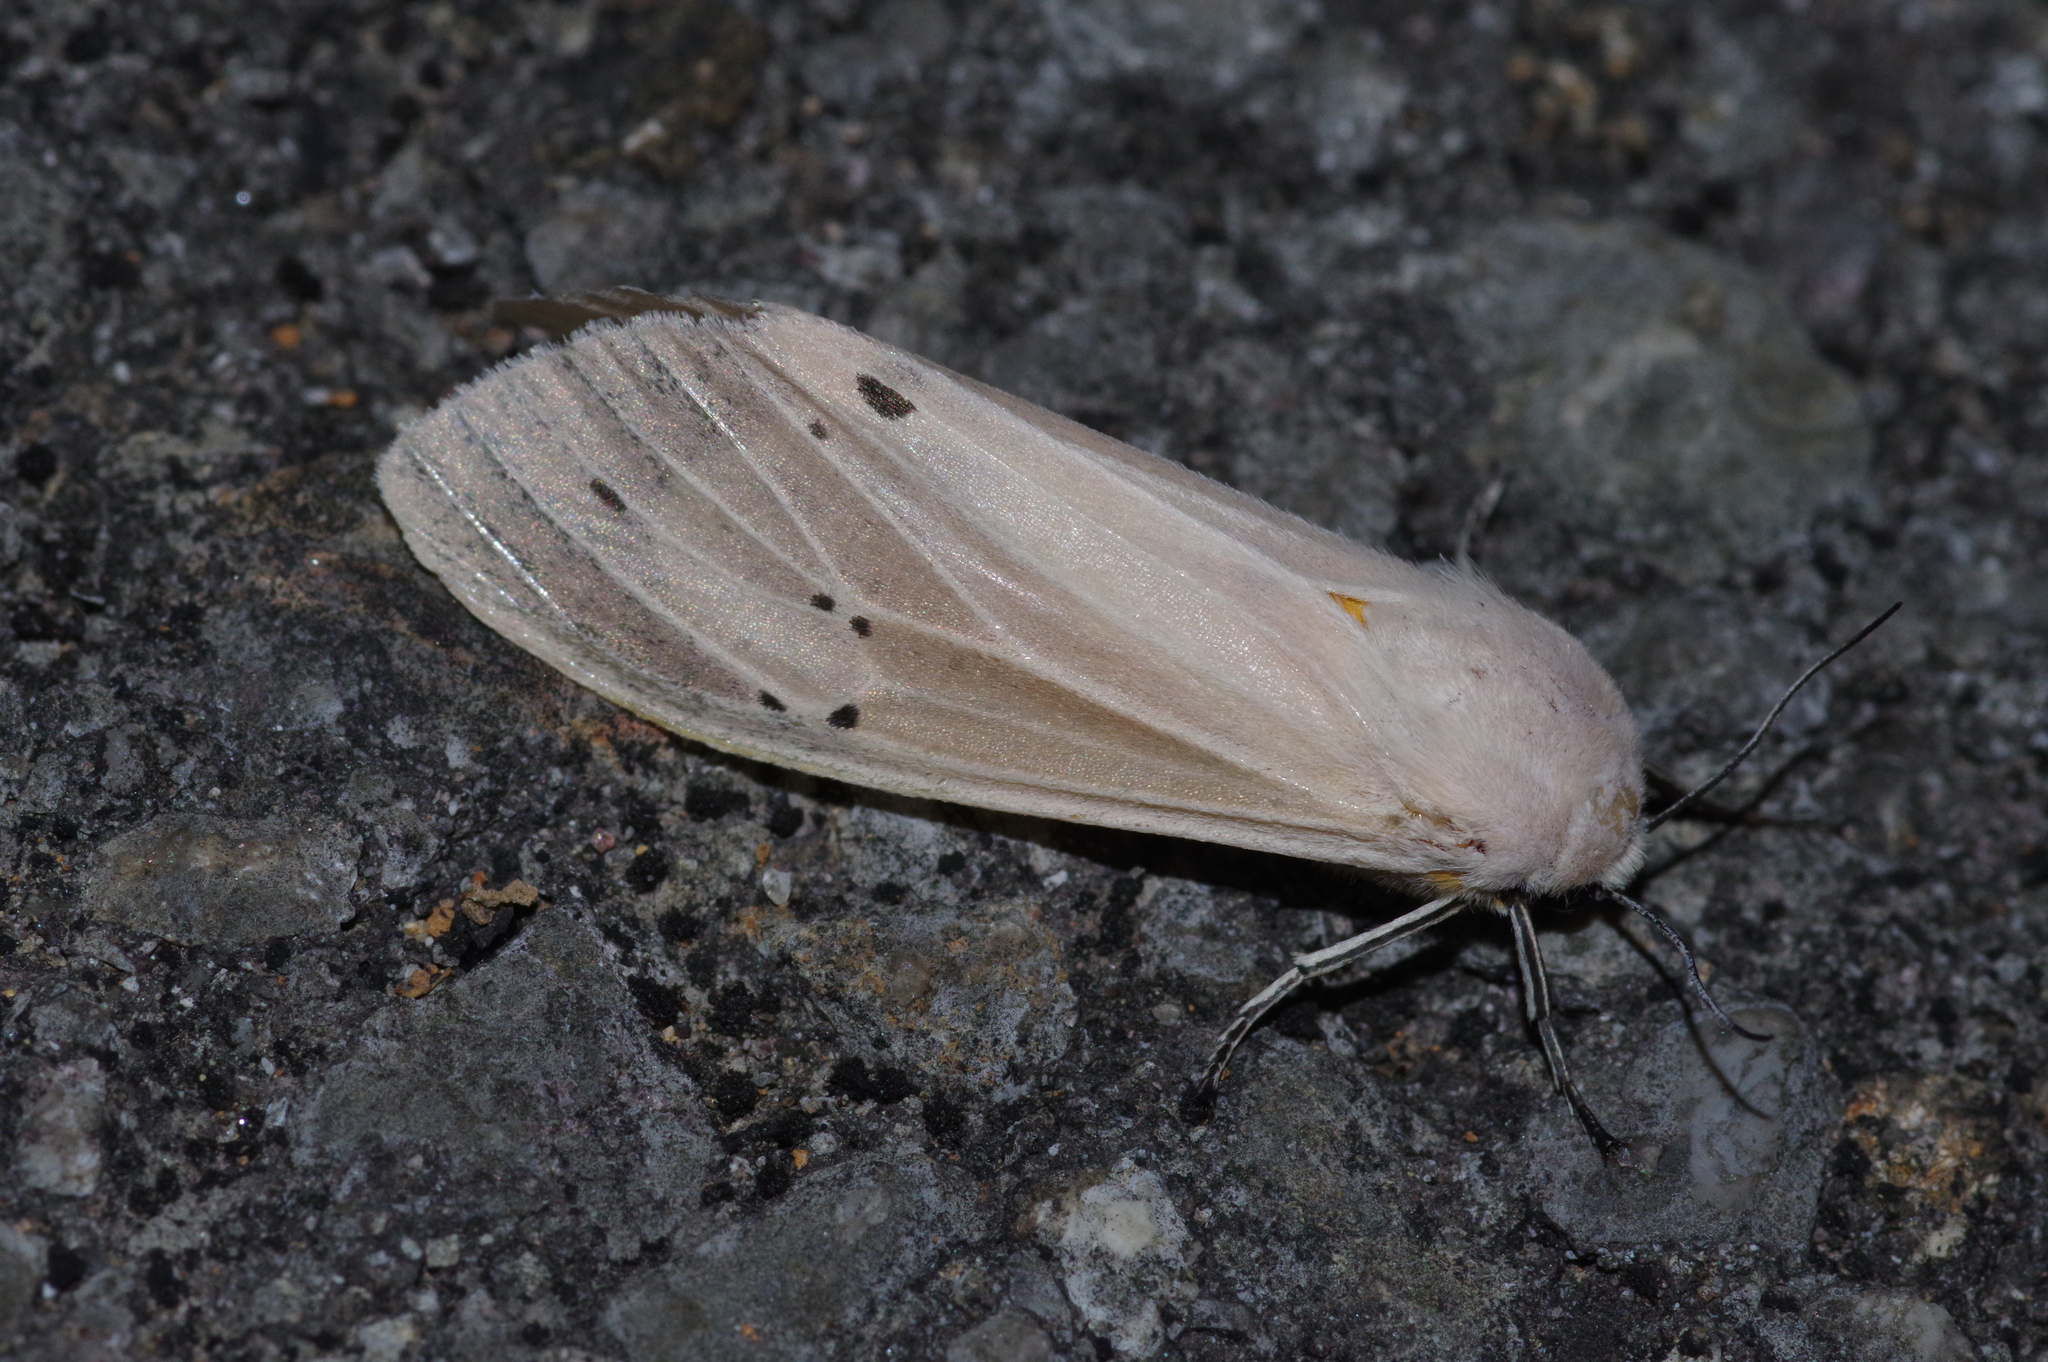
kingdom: Animalia
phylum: Arthropoda
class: Insecta
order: Lepidoptera
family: Erebidae
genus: Creatonotos
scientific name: Creatonotos transiens
